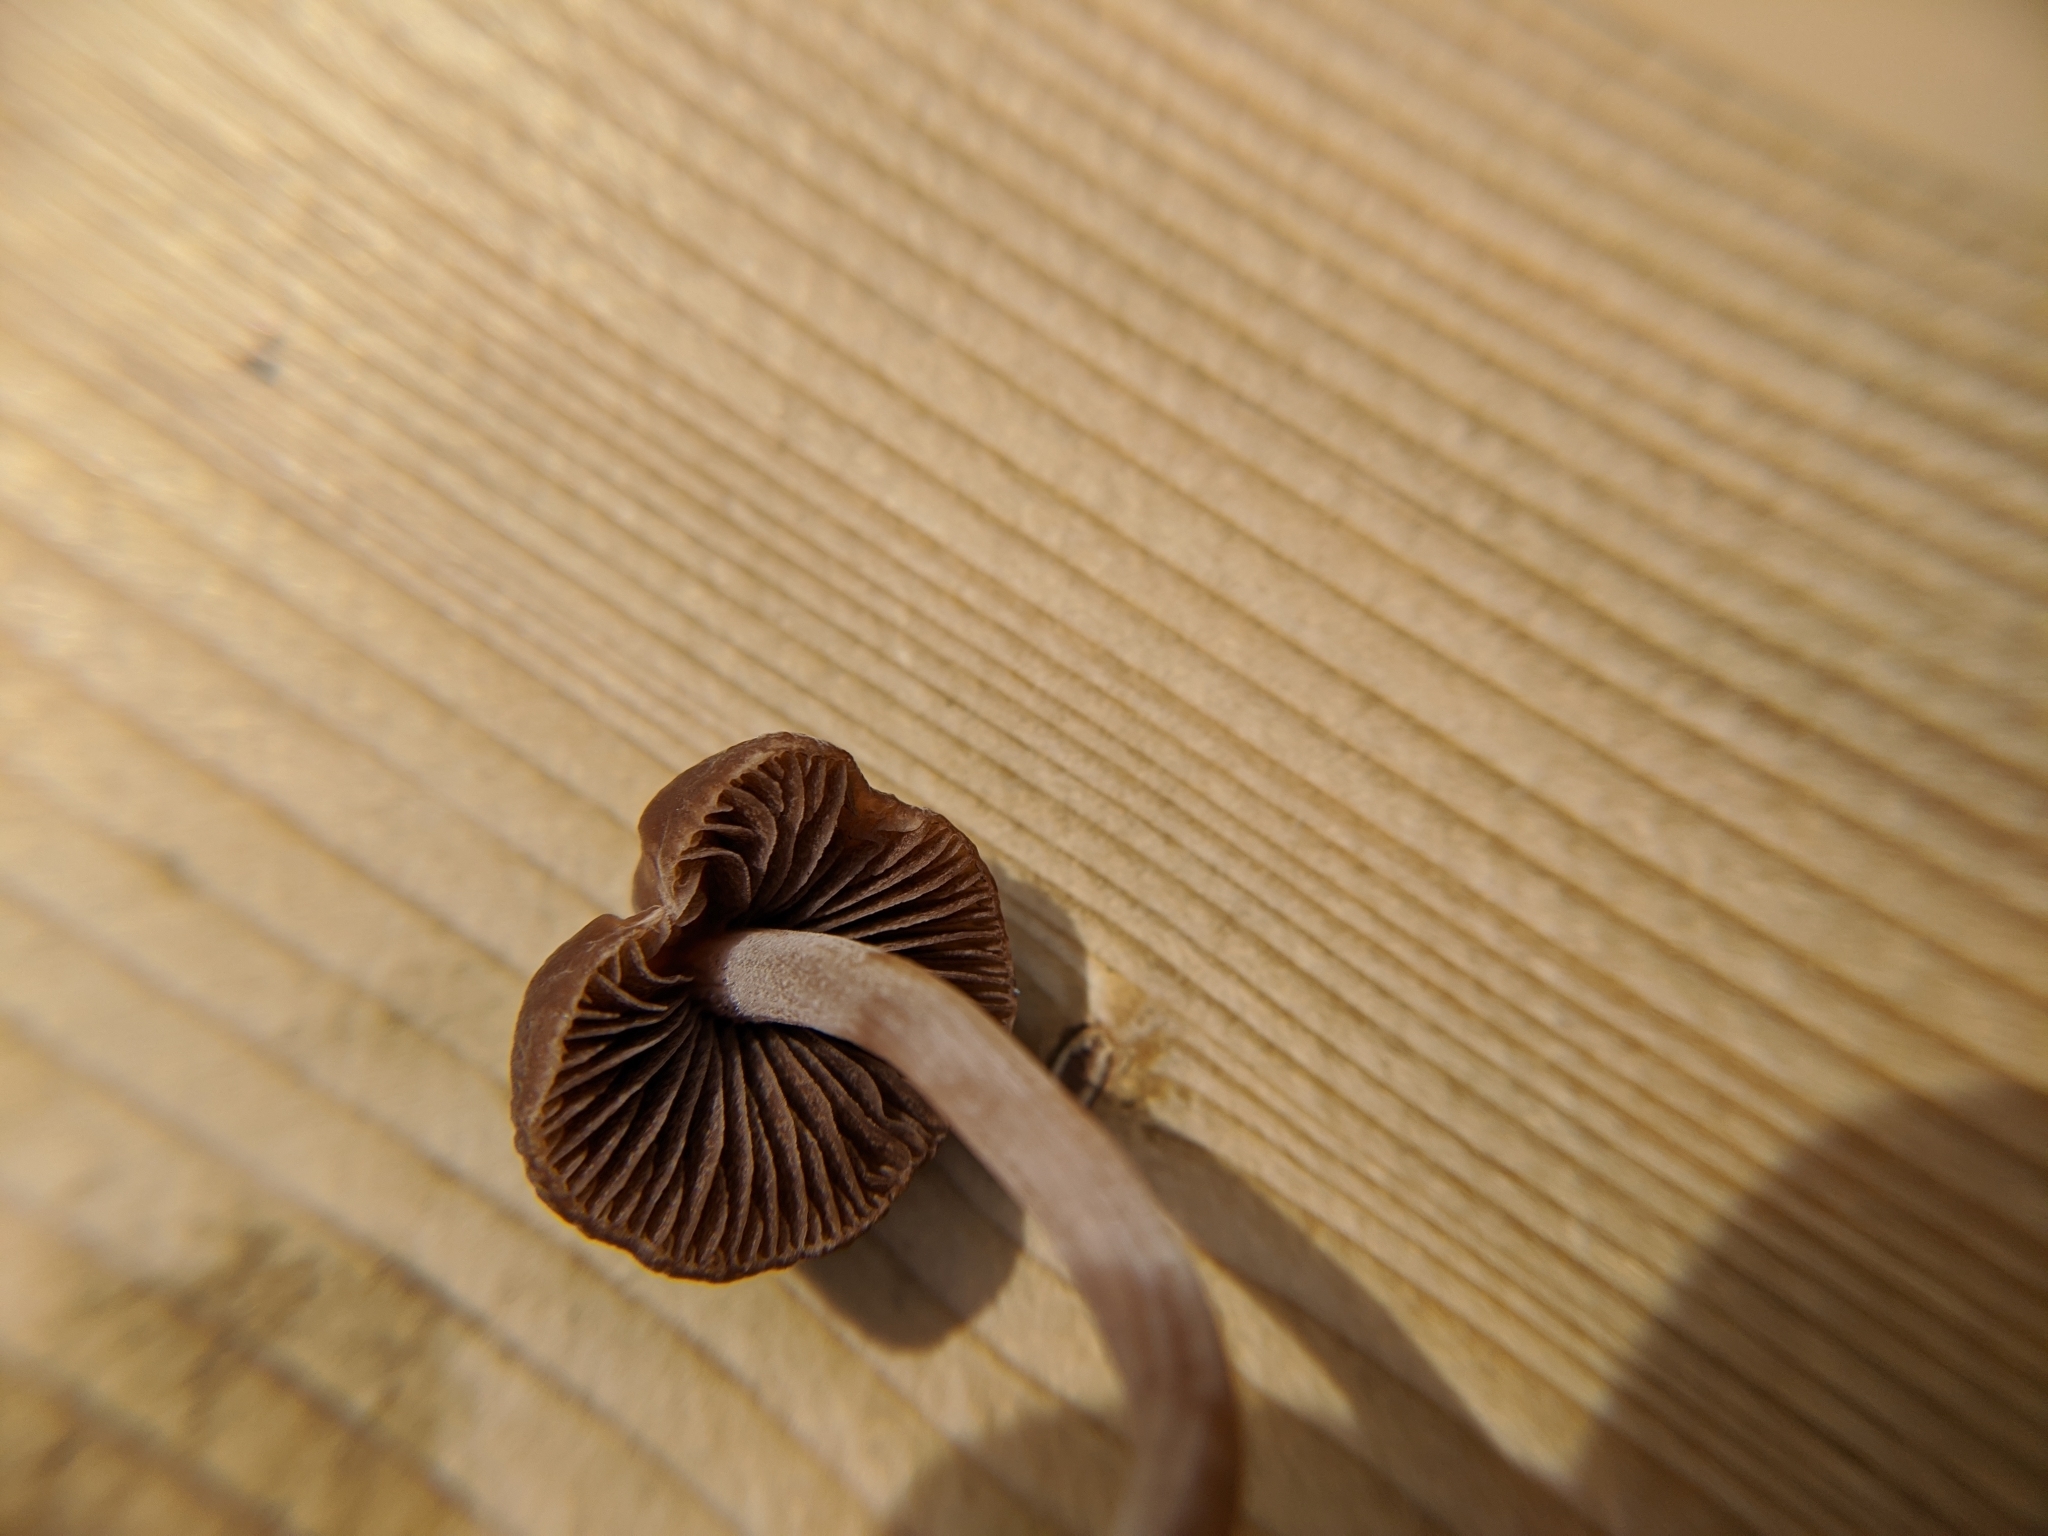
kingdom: Fungi
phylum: Basidiomycota
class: Agaricomycetes
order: Agaricales
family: Bolbitiaceae
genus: Panaeolina
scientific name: Panaeolina foenisecii
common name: Brown hay cap
